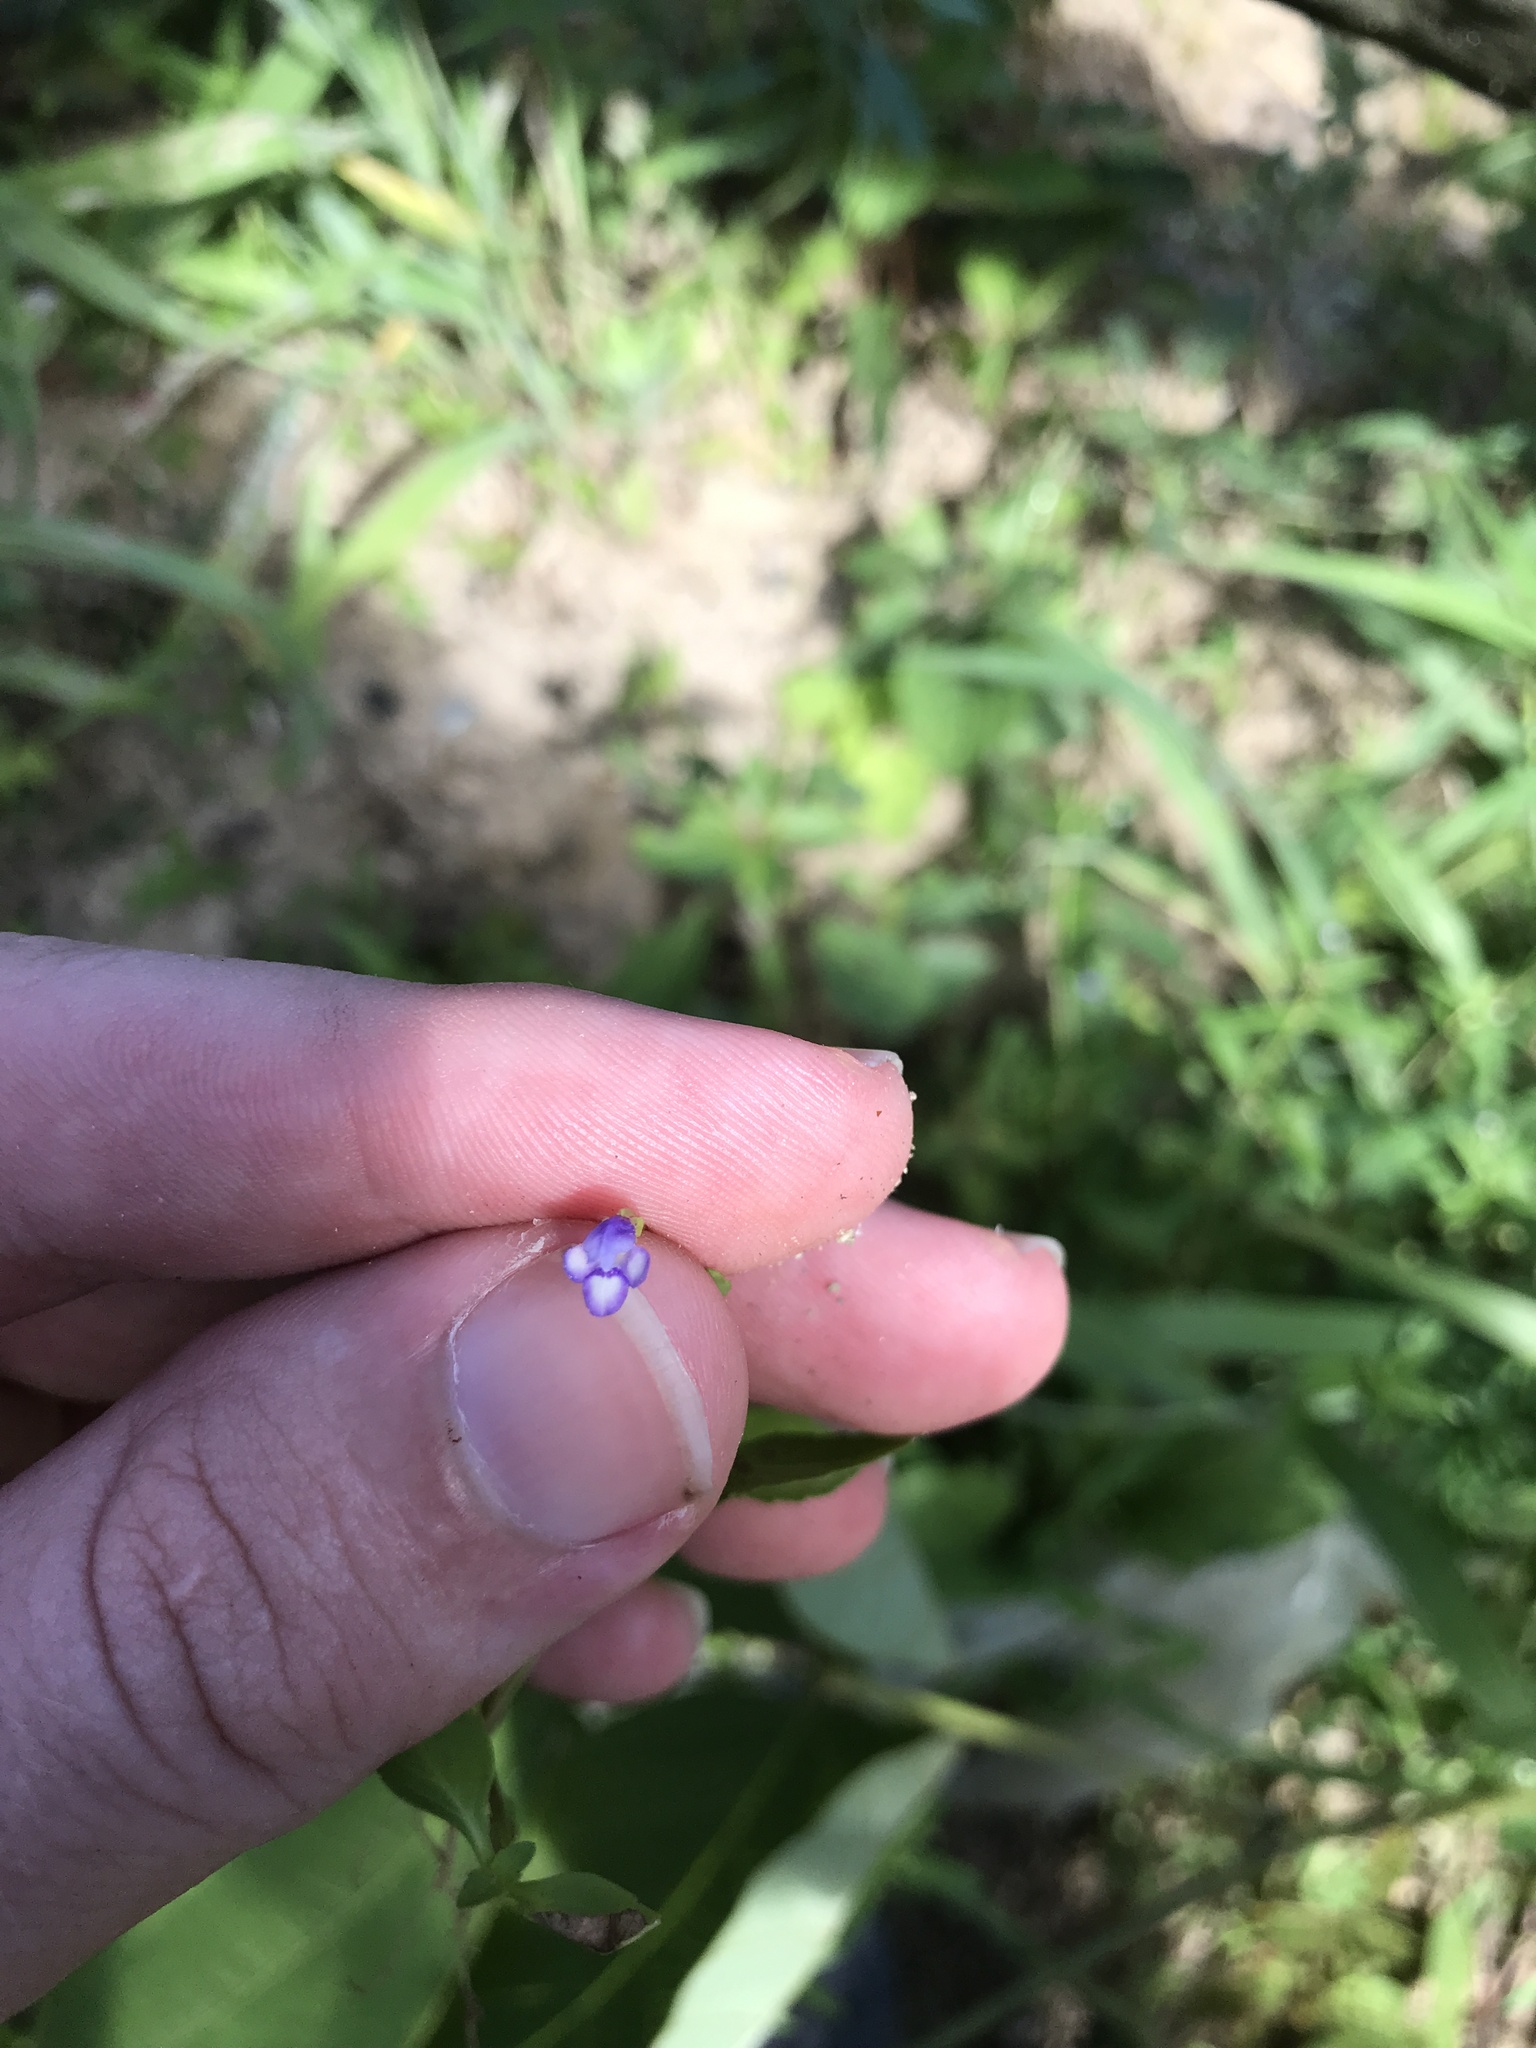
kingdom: Plantae
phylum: Tracheophyta
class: Magnoliopsida
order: Lamiales
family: Linderniaceae
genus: Torenia
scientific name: Torenia crustacea
